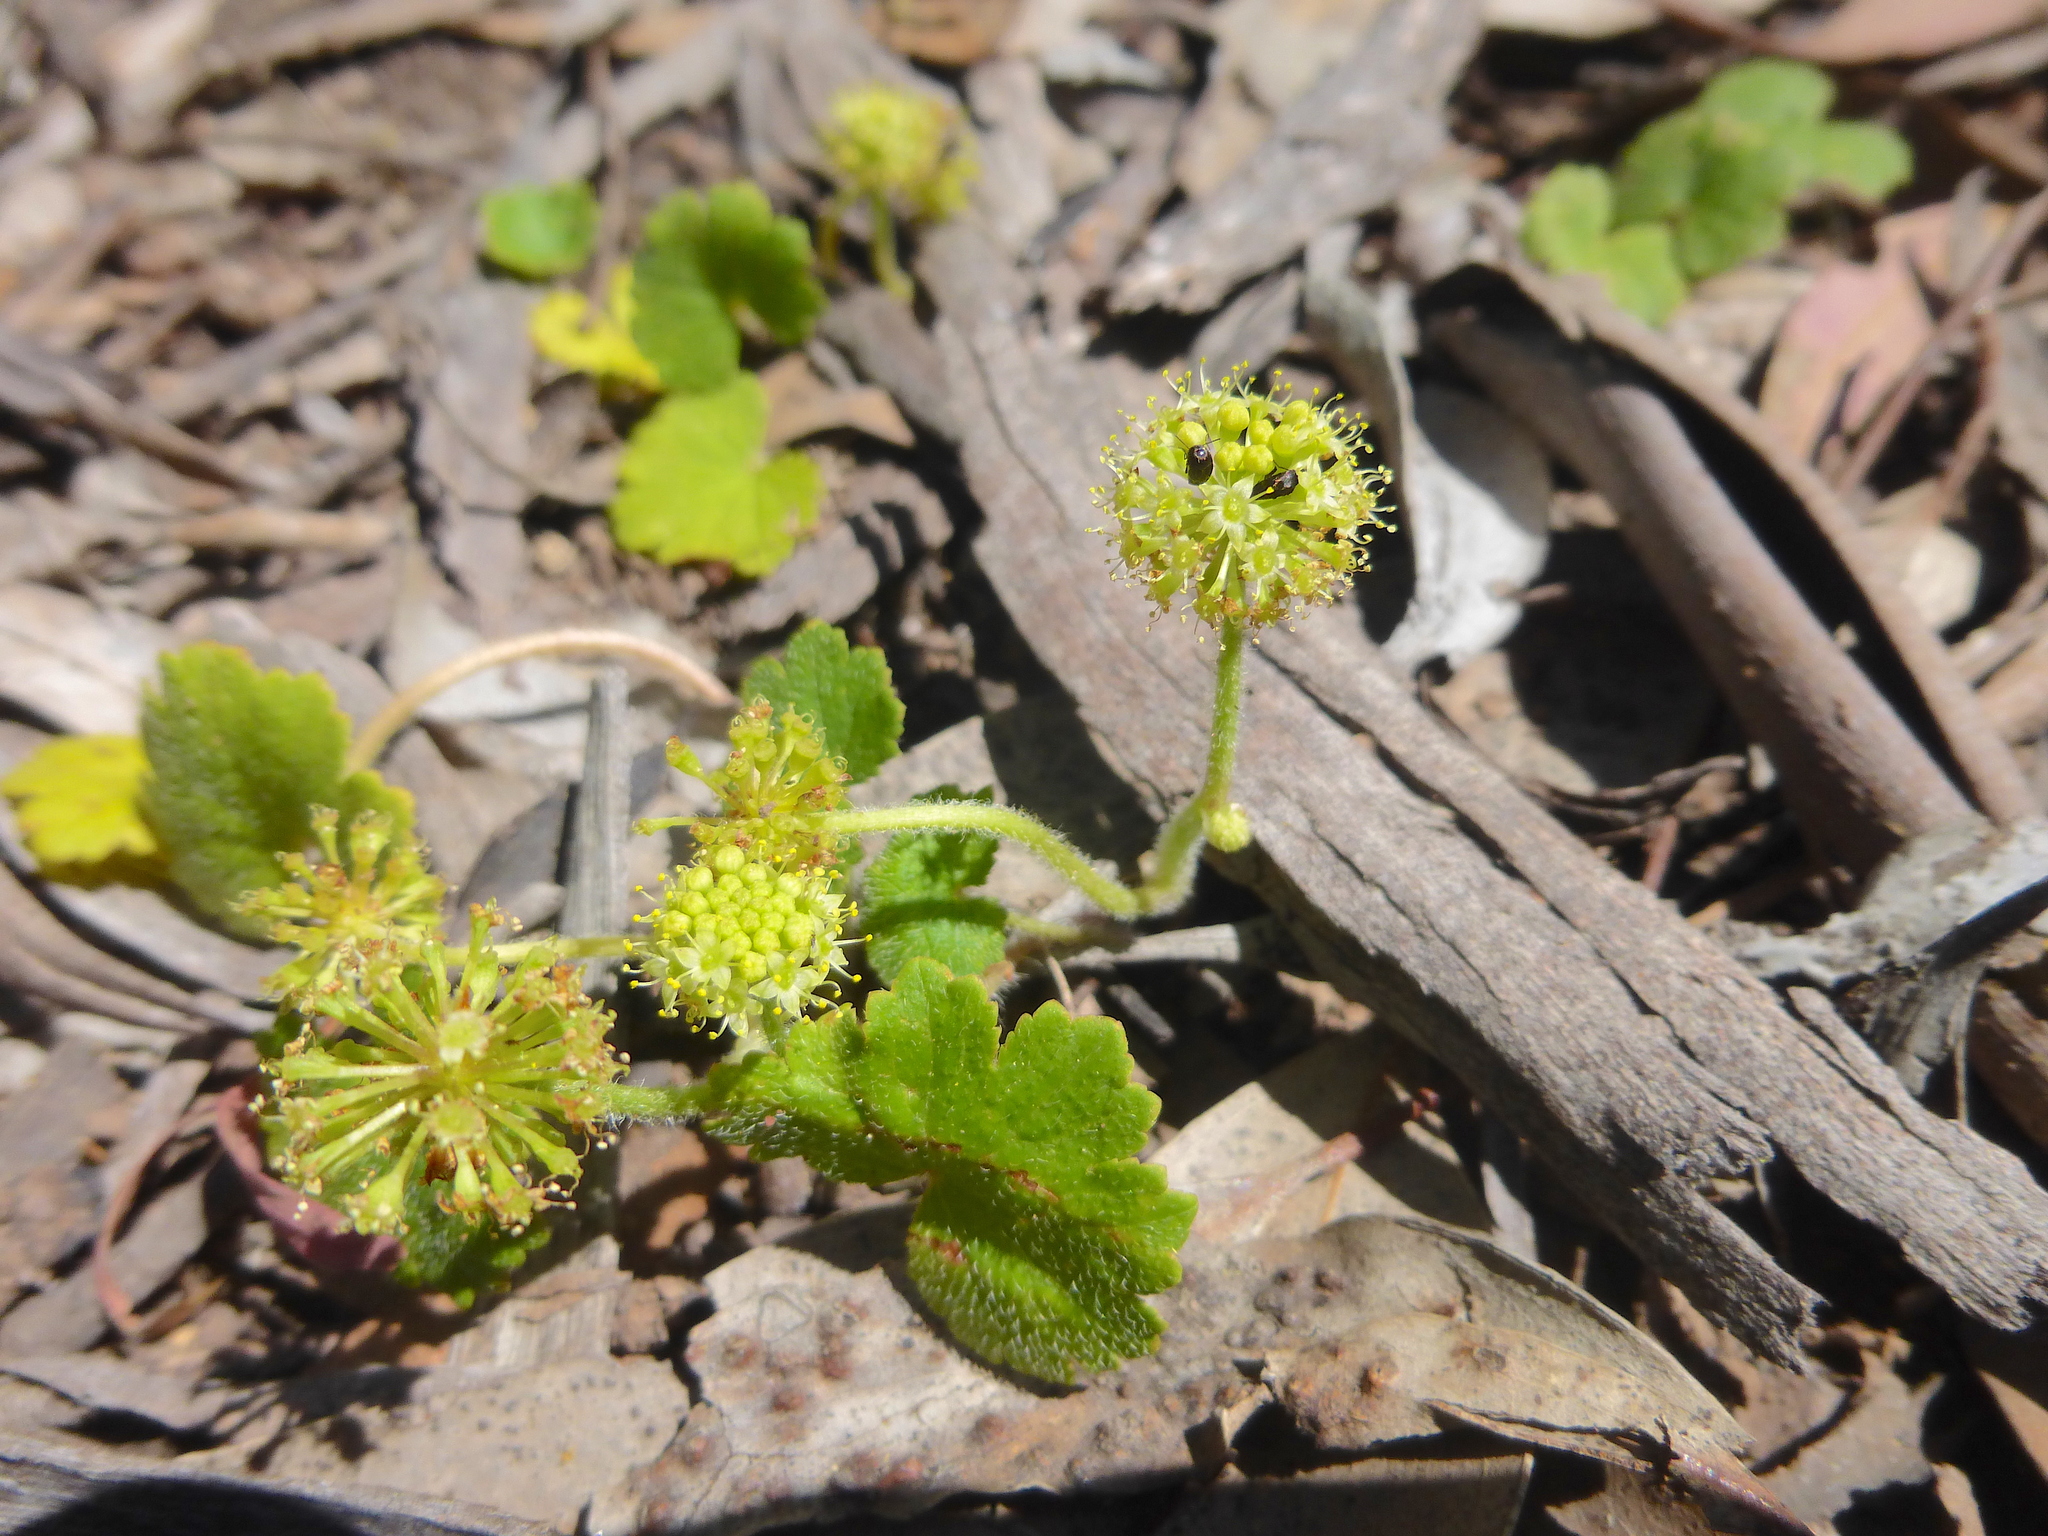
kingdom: Plantae
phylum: Tracheophyta
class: Magnoliopsida
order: Apiales
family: Araliaceae
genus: Hydrocotyle
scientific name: Hydrocotyle laxiflora
